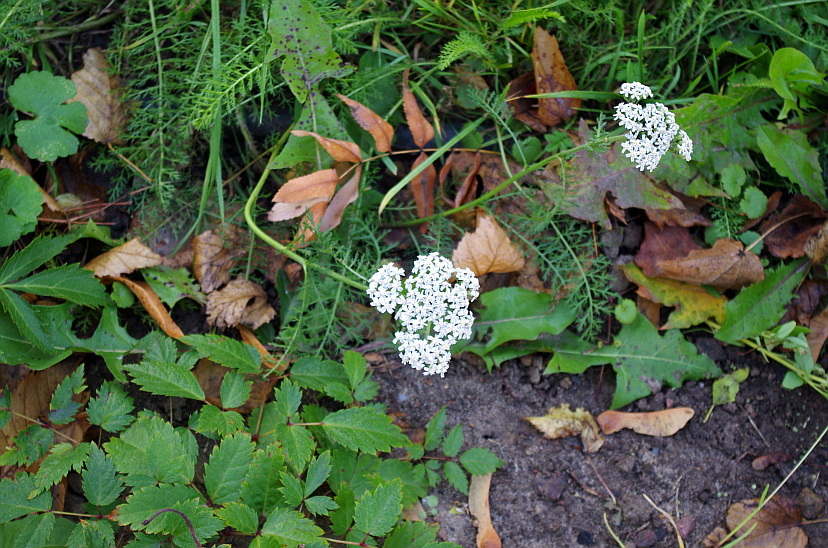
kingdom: Plantae
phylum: Tracheophyta
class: Magnoliopsida
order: Asterales
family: Asteraceae
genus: Achillea
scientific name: Achillea millefolium
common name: Yarrow
